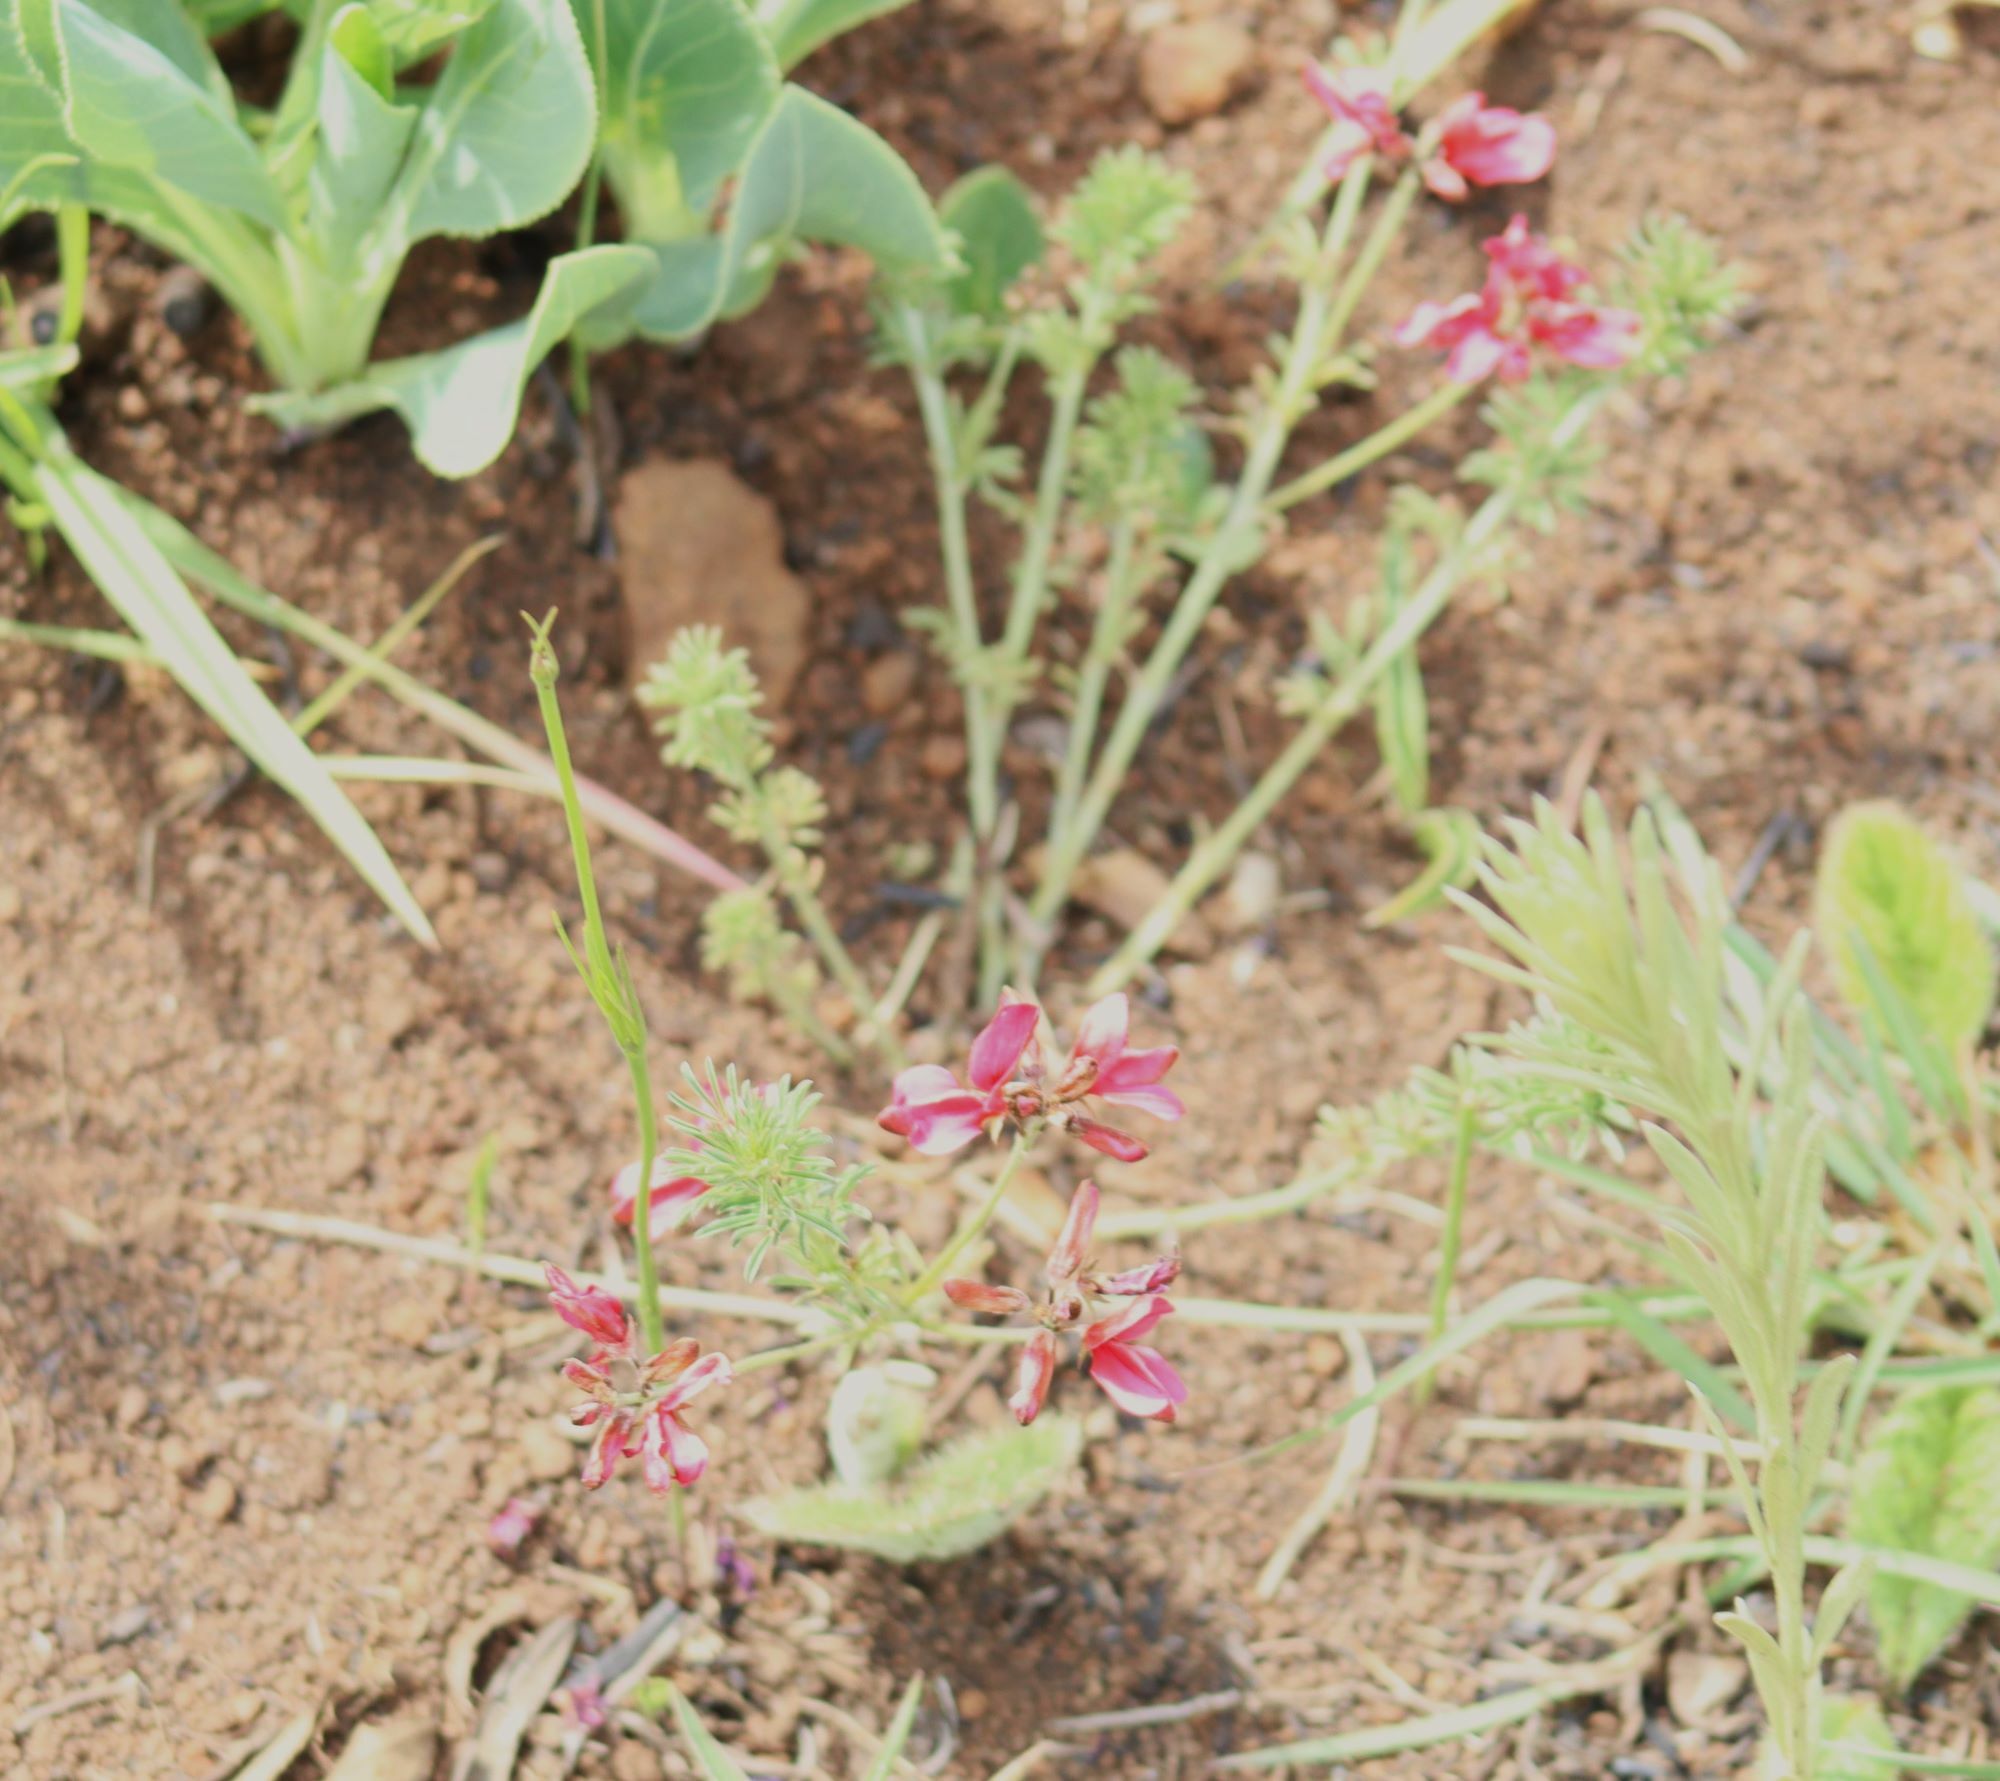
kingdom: Plantae
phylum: Tracheophyta
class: Magnoliopsida
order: Fabales
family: Fabaceae
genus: Indigofera
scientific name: Indigofera hilaris
